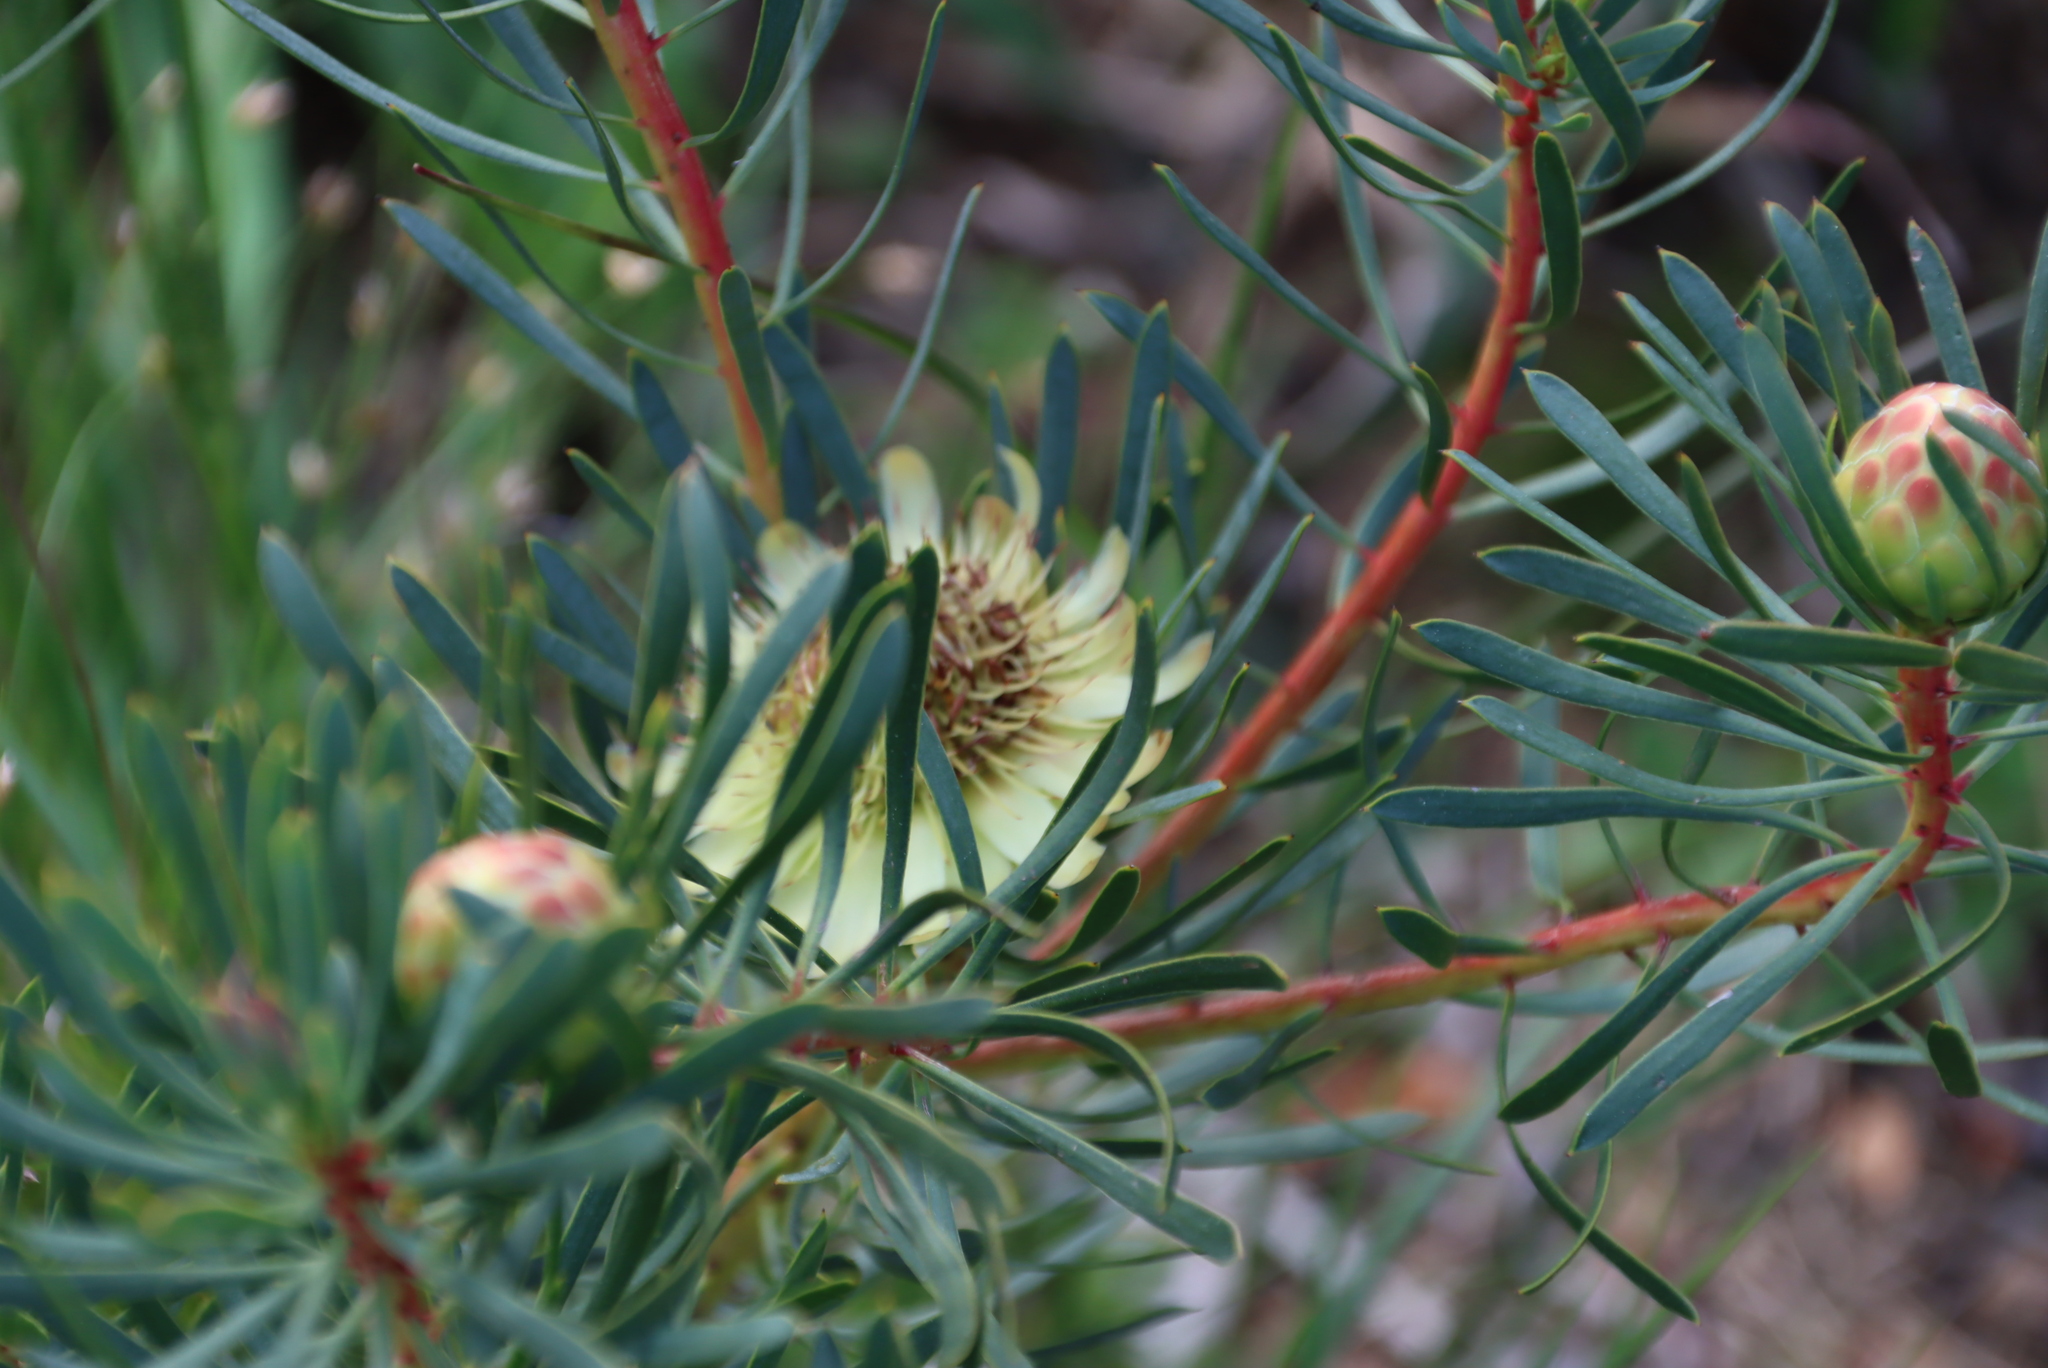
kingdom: Plantae
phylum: Tracheophyta
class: Magnoliopsida
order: Proteales
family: Proteaceae
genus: Protea
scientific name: Protea scolymocephala
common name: Thistle sugarbush
